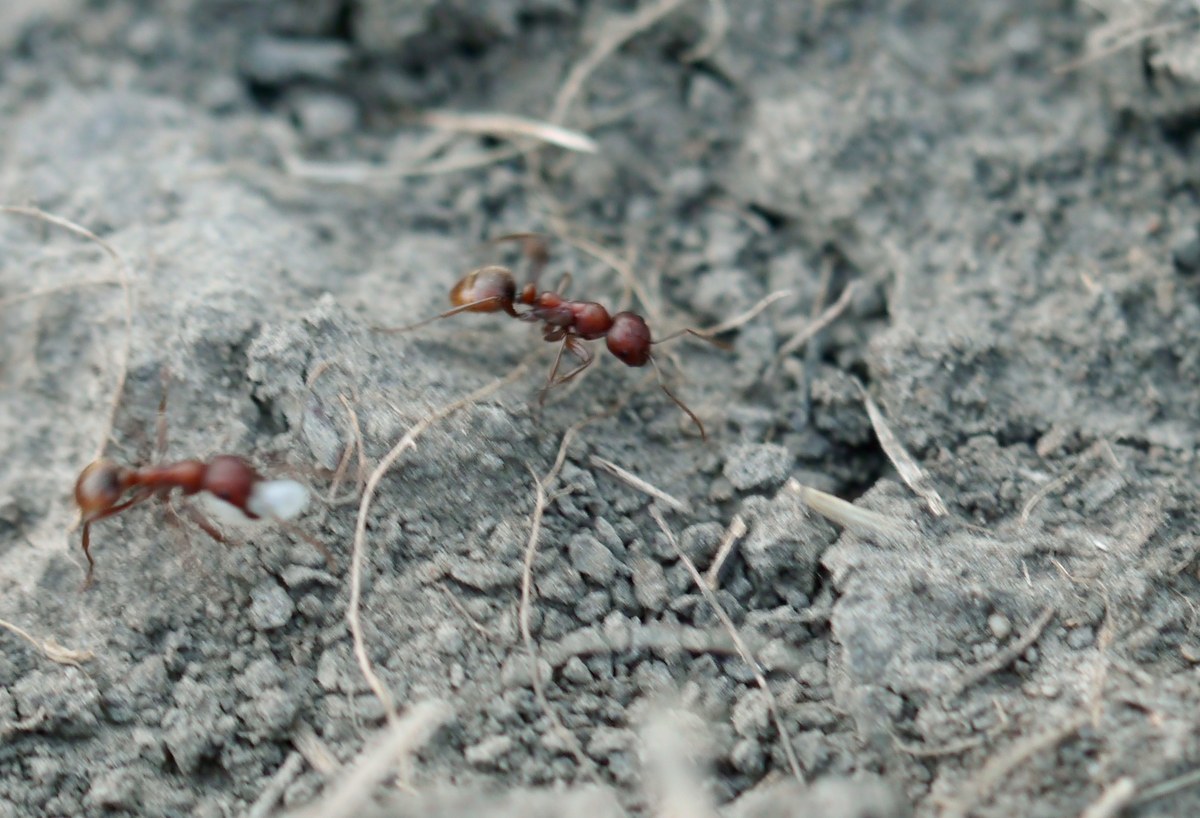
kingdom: Animalia
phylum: Arthropoda
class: Insecta
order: Hymenoptera
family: Formicidae
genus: Polyergus
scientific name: Polyergus rufescens
